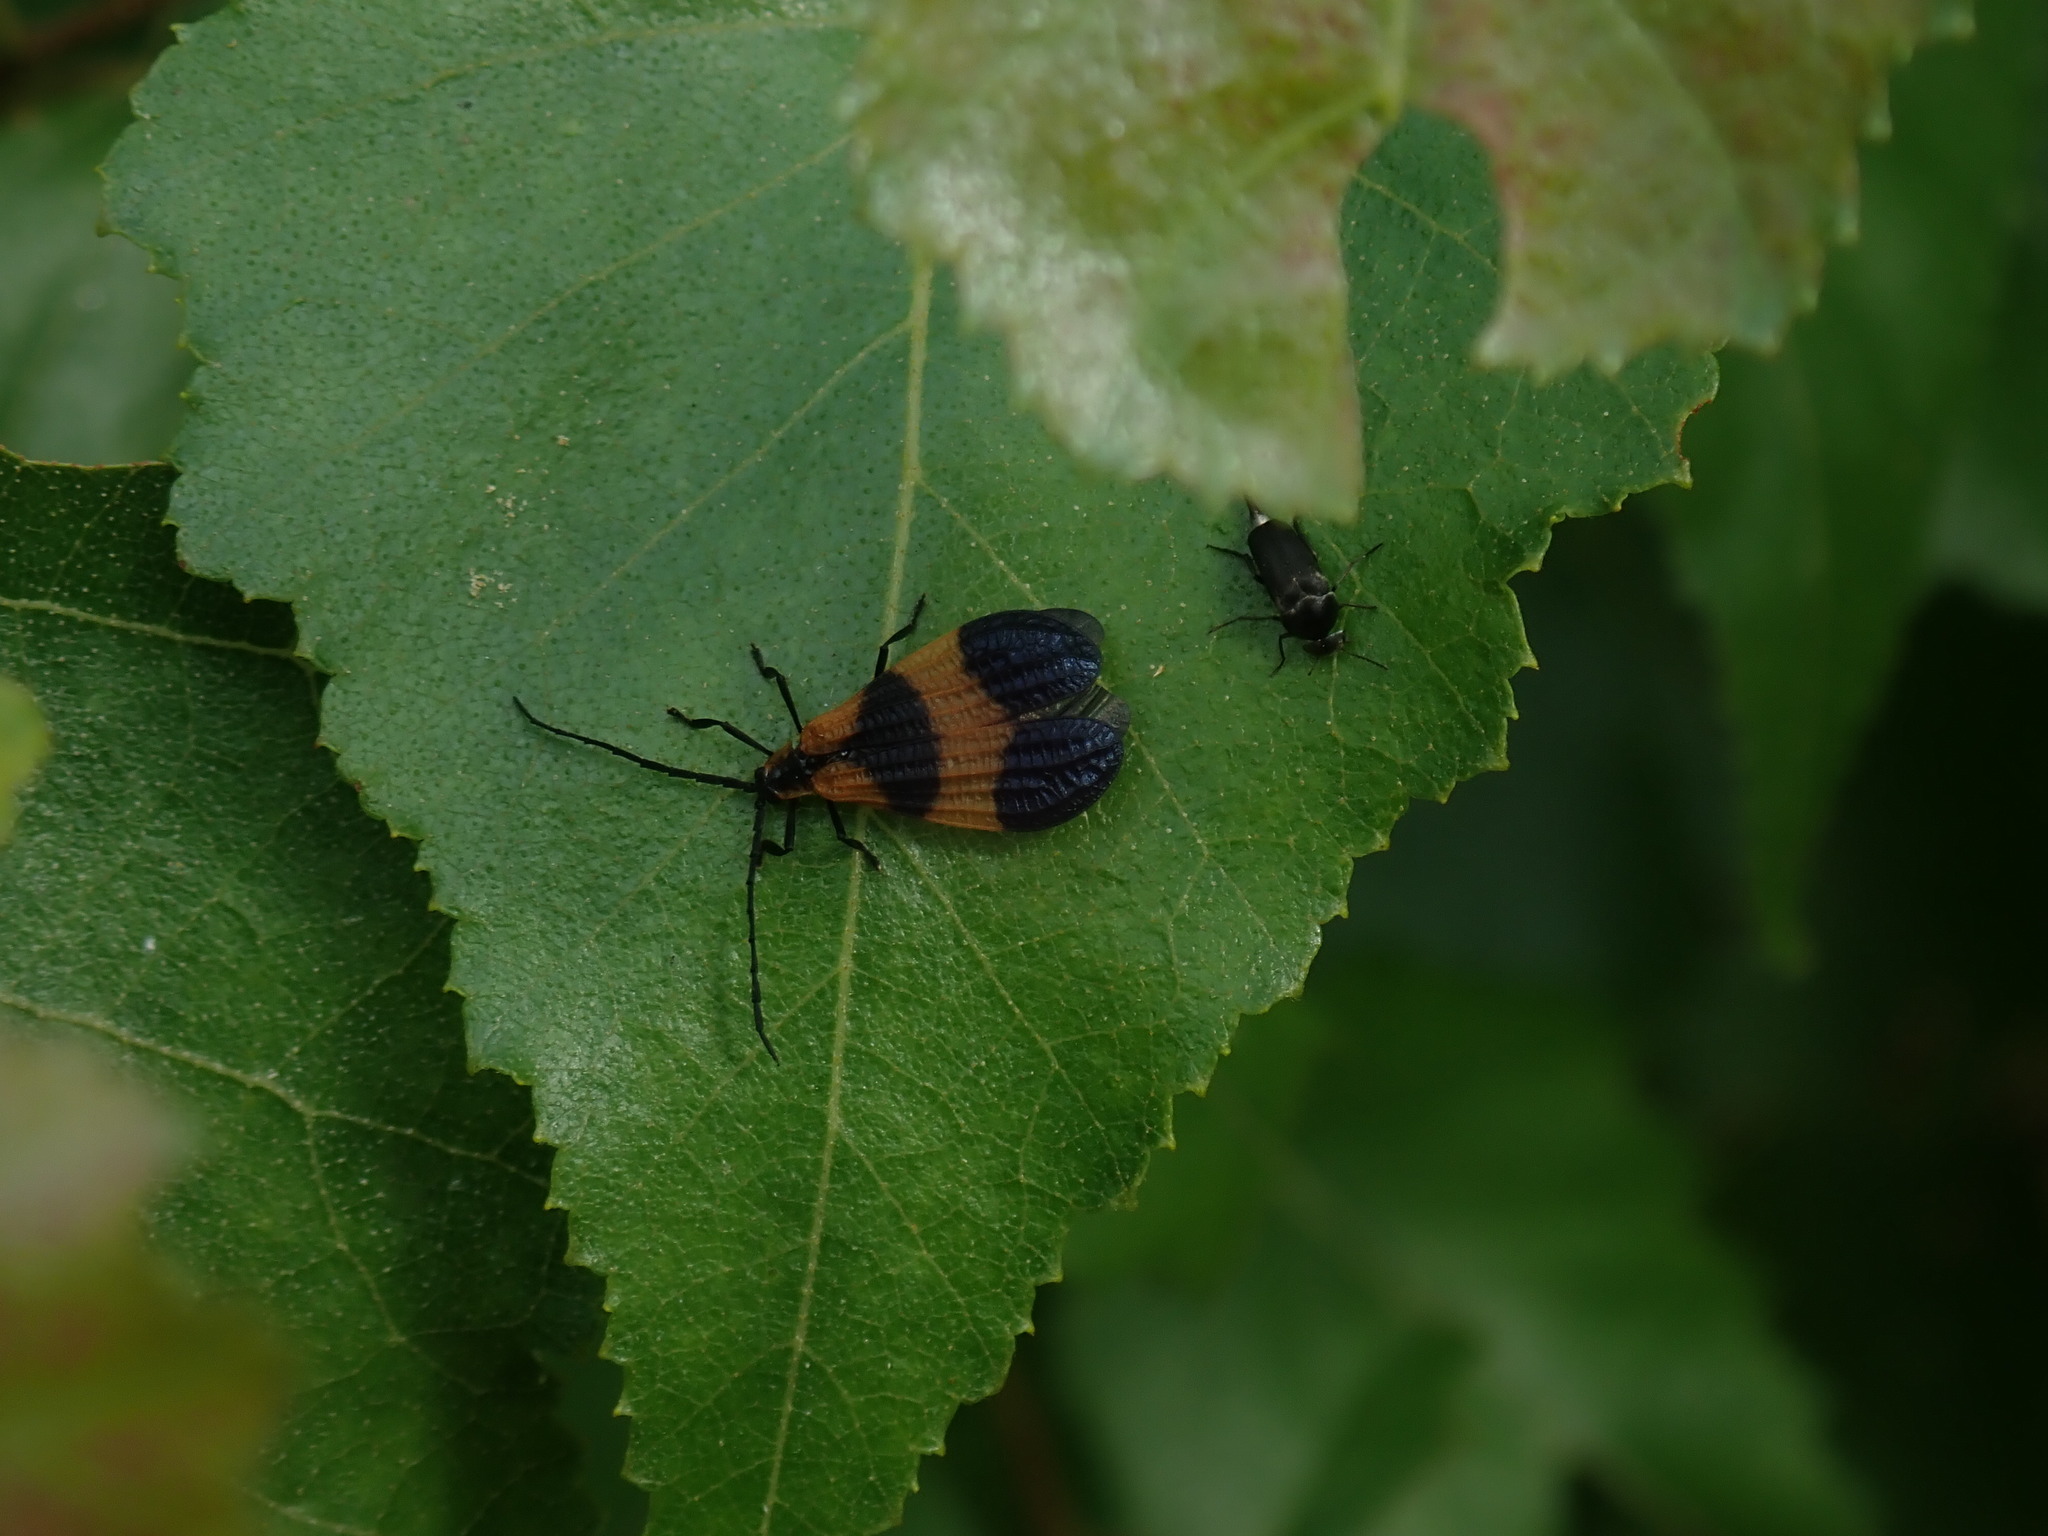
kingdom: Animalia
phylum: Arthropoda
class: Insecta
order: Coleoptera
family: Lycidae
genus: Calopteron
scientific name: Calopteron terminale
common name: End band net-winged beetle
